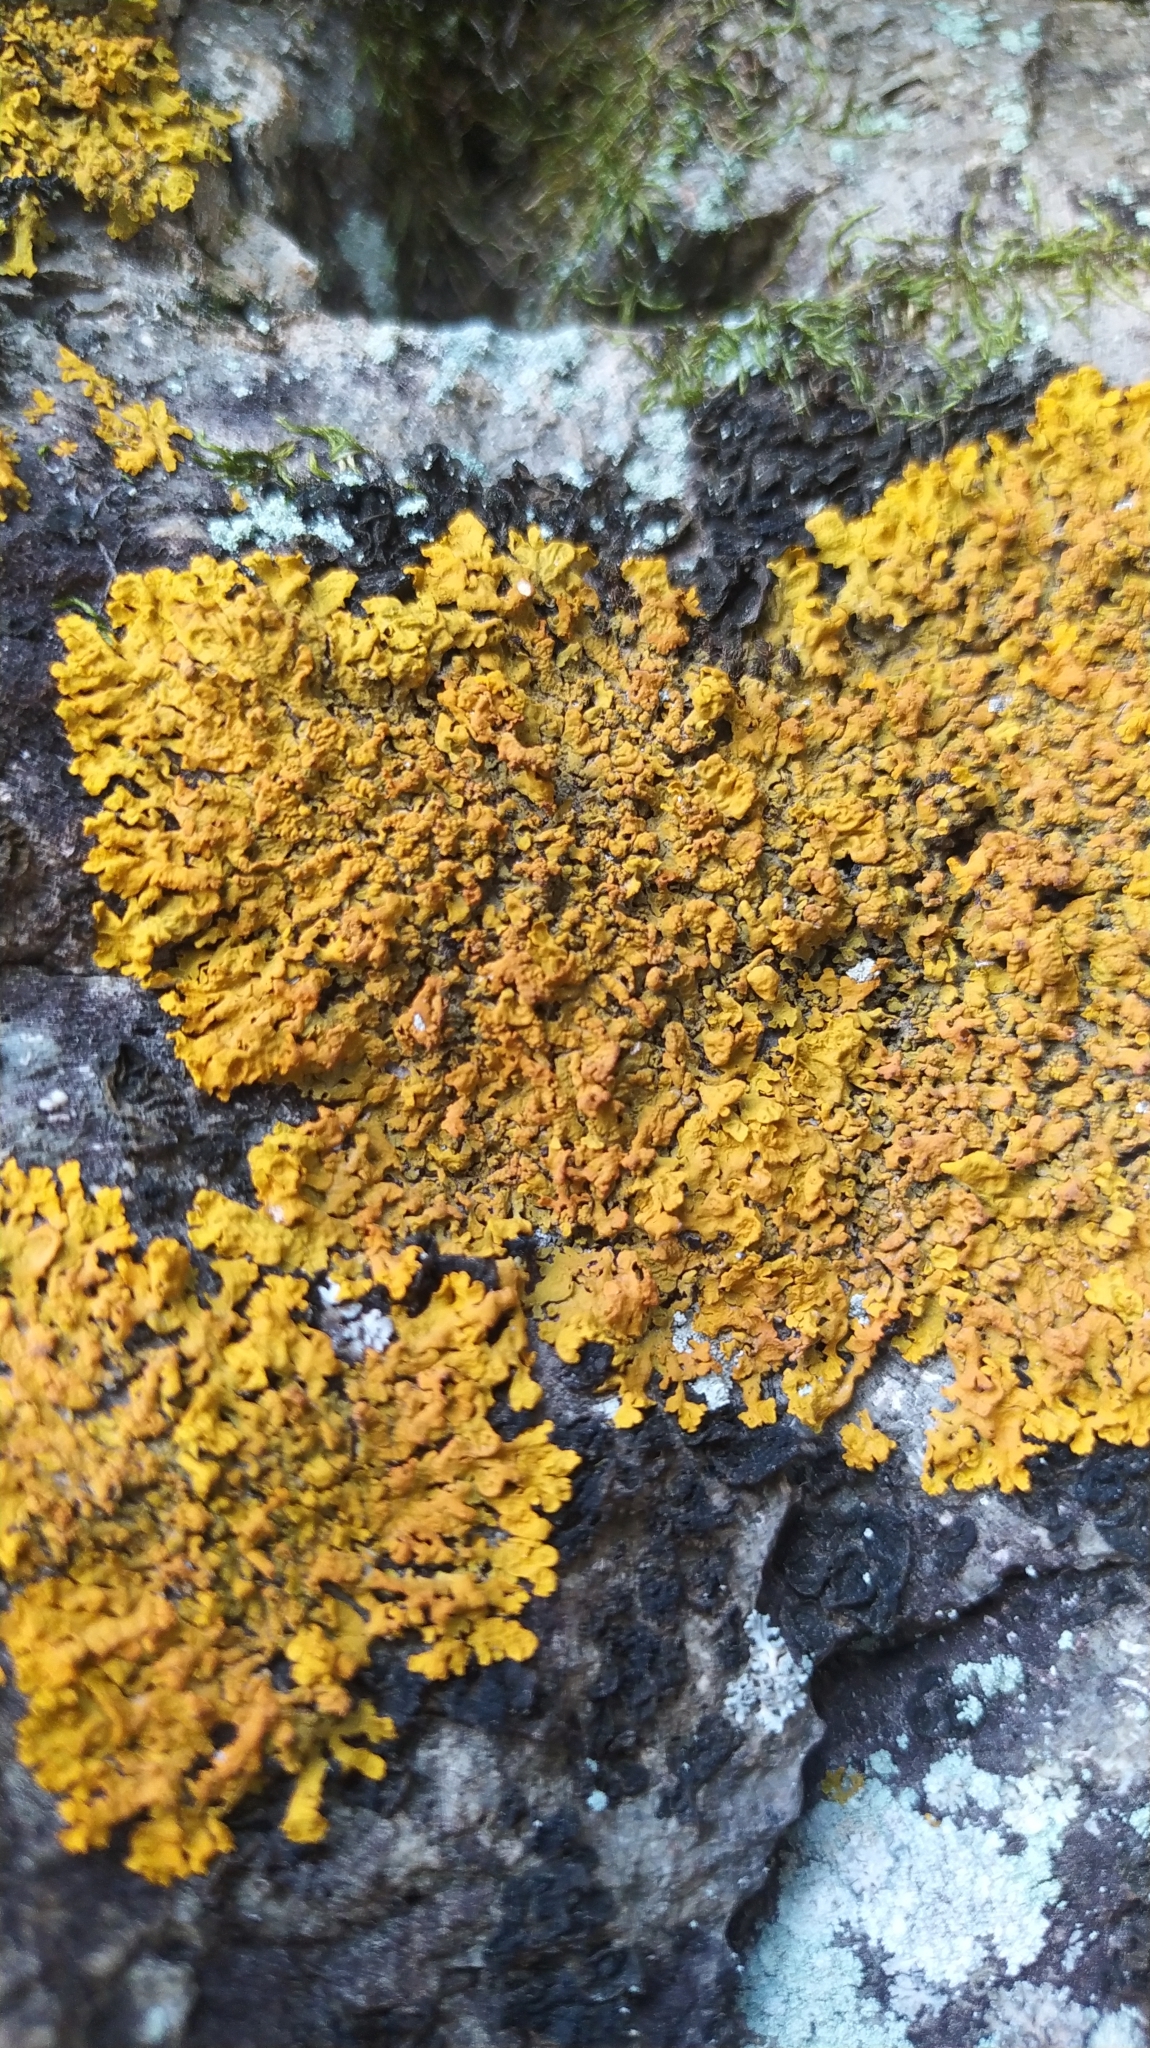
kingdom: Fungi
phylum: Ascomycota
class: Lecanoromycetes
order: Teloschistales
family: Teloschistaceae
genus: Xanthoria
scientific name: Xanthoria parietina
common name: Common orange lichen
